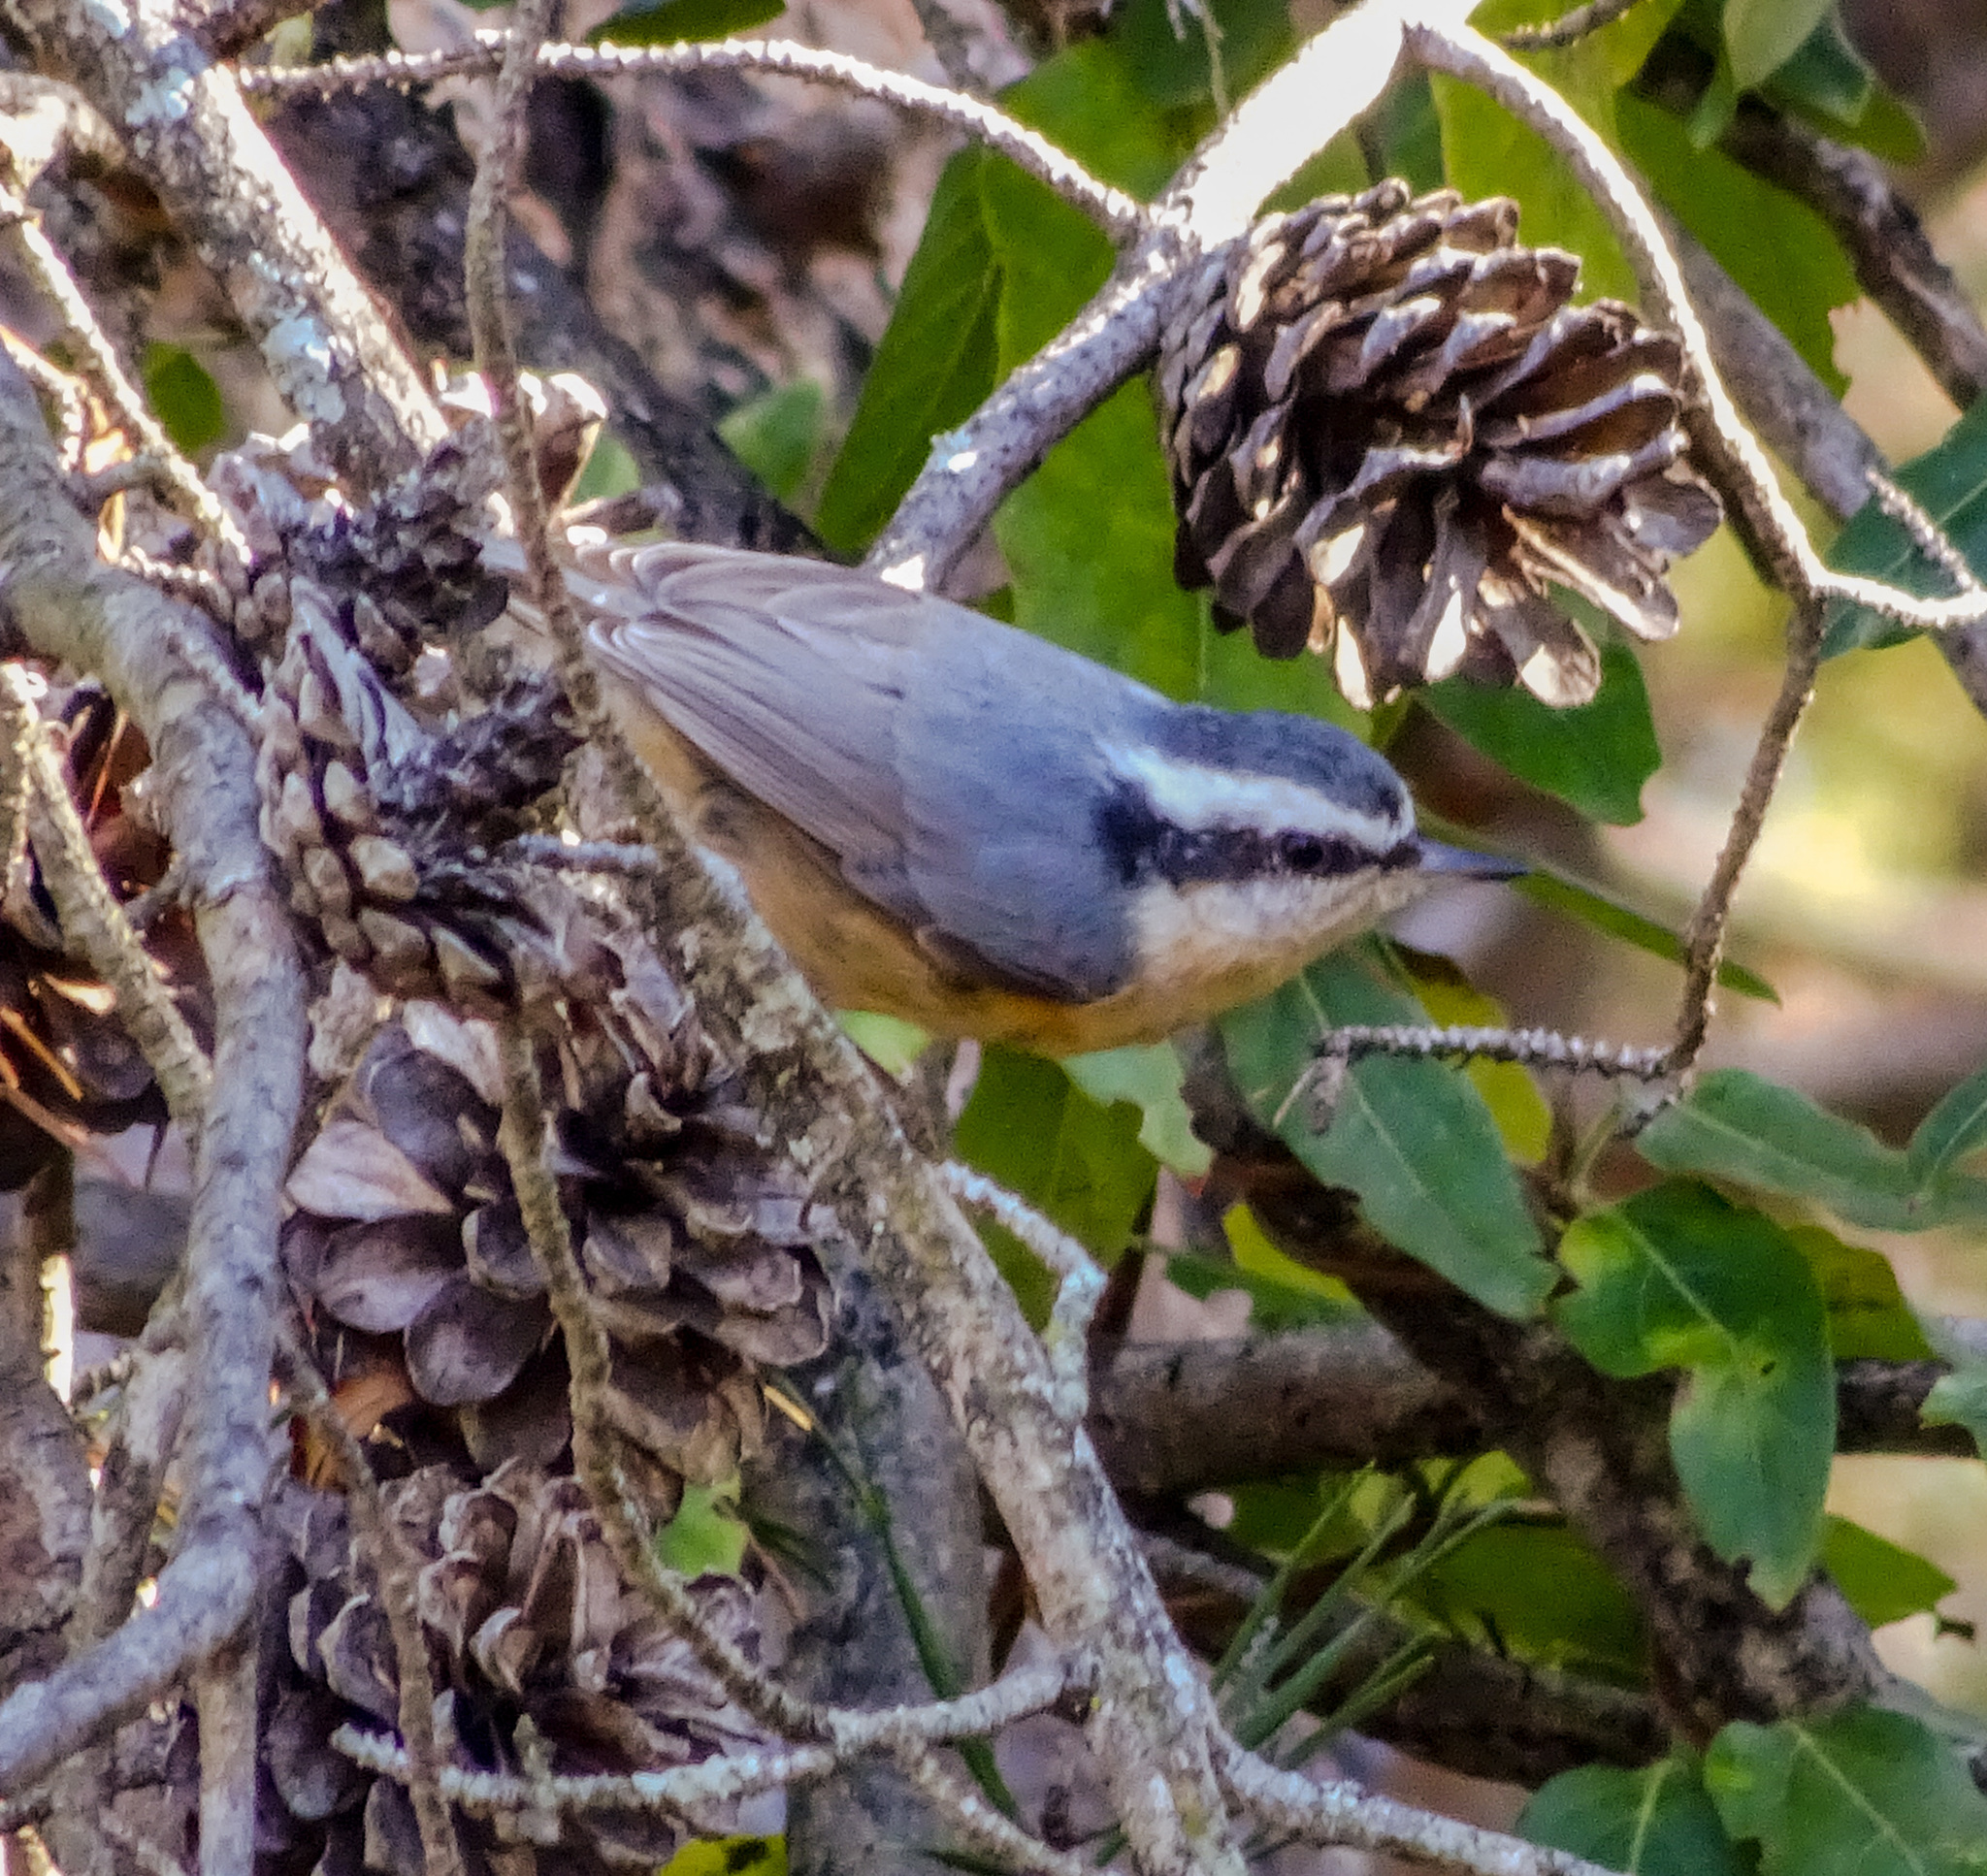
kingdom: Animalia
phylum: Chordata
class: Aves
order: Passeriformes
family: Sittidae
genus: Sitta
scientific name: Sitta canadensis
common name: Red-breasted nuthatch
